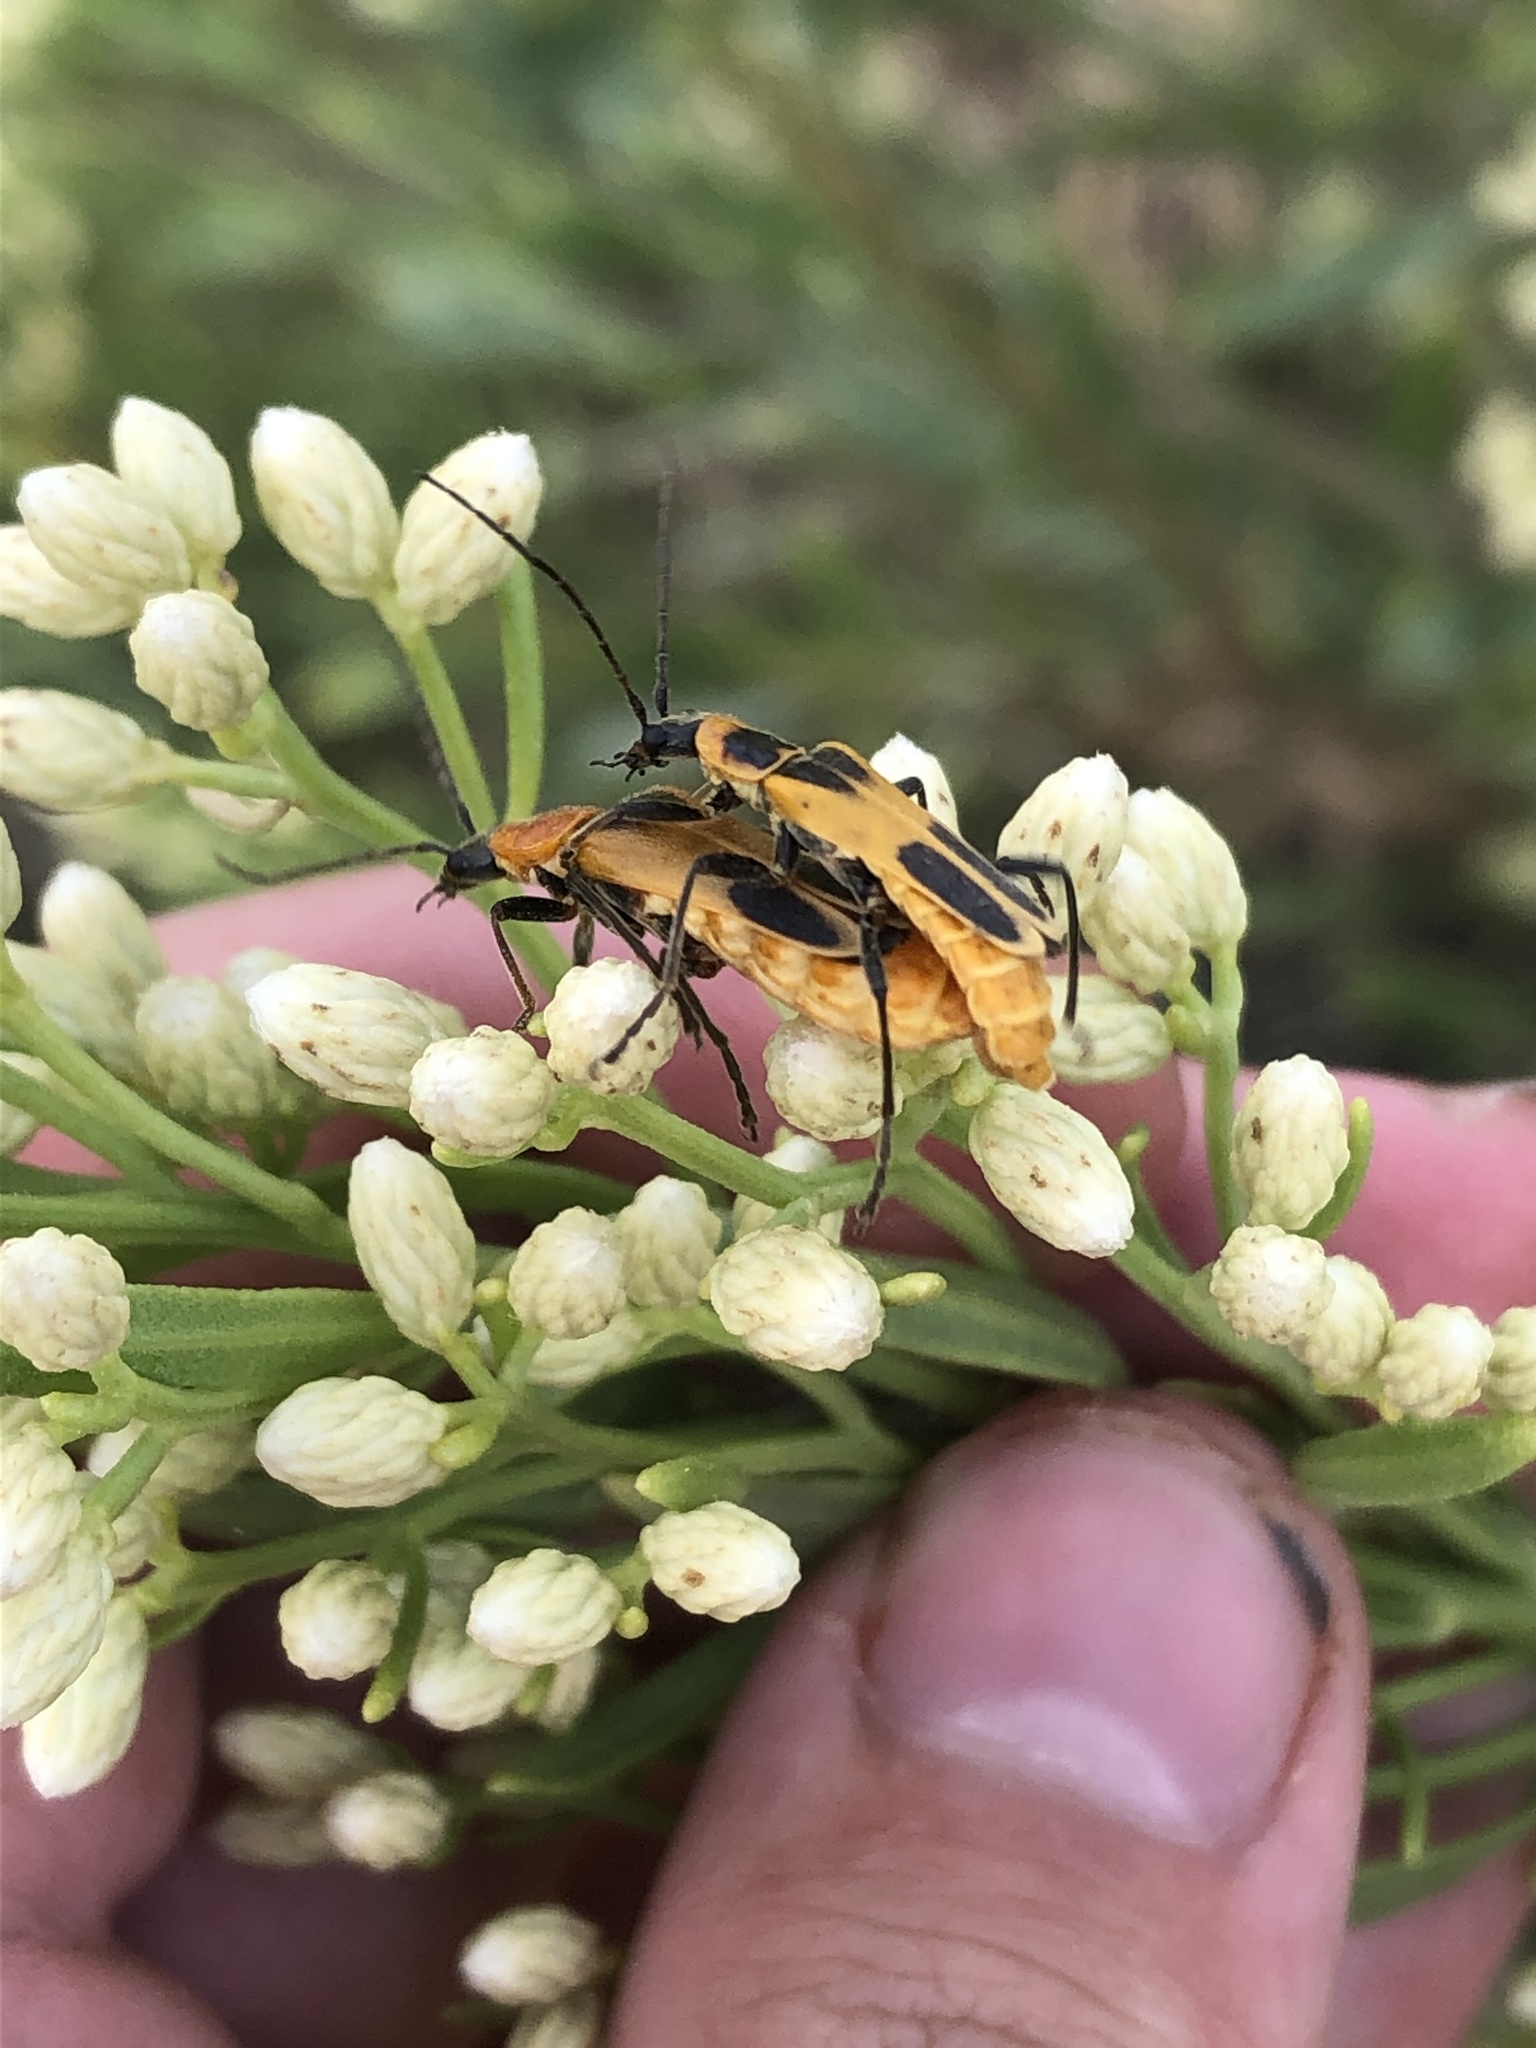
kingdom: Animalia
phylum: Arthropoda
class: Insecta
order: Coleoptera
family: Cantharidae
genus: Chauliognathus
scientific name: Chauliognathus omissus
